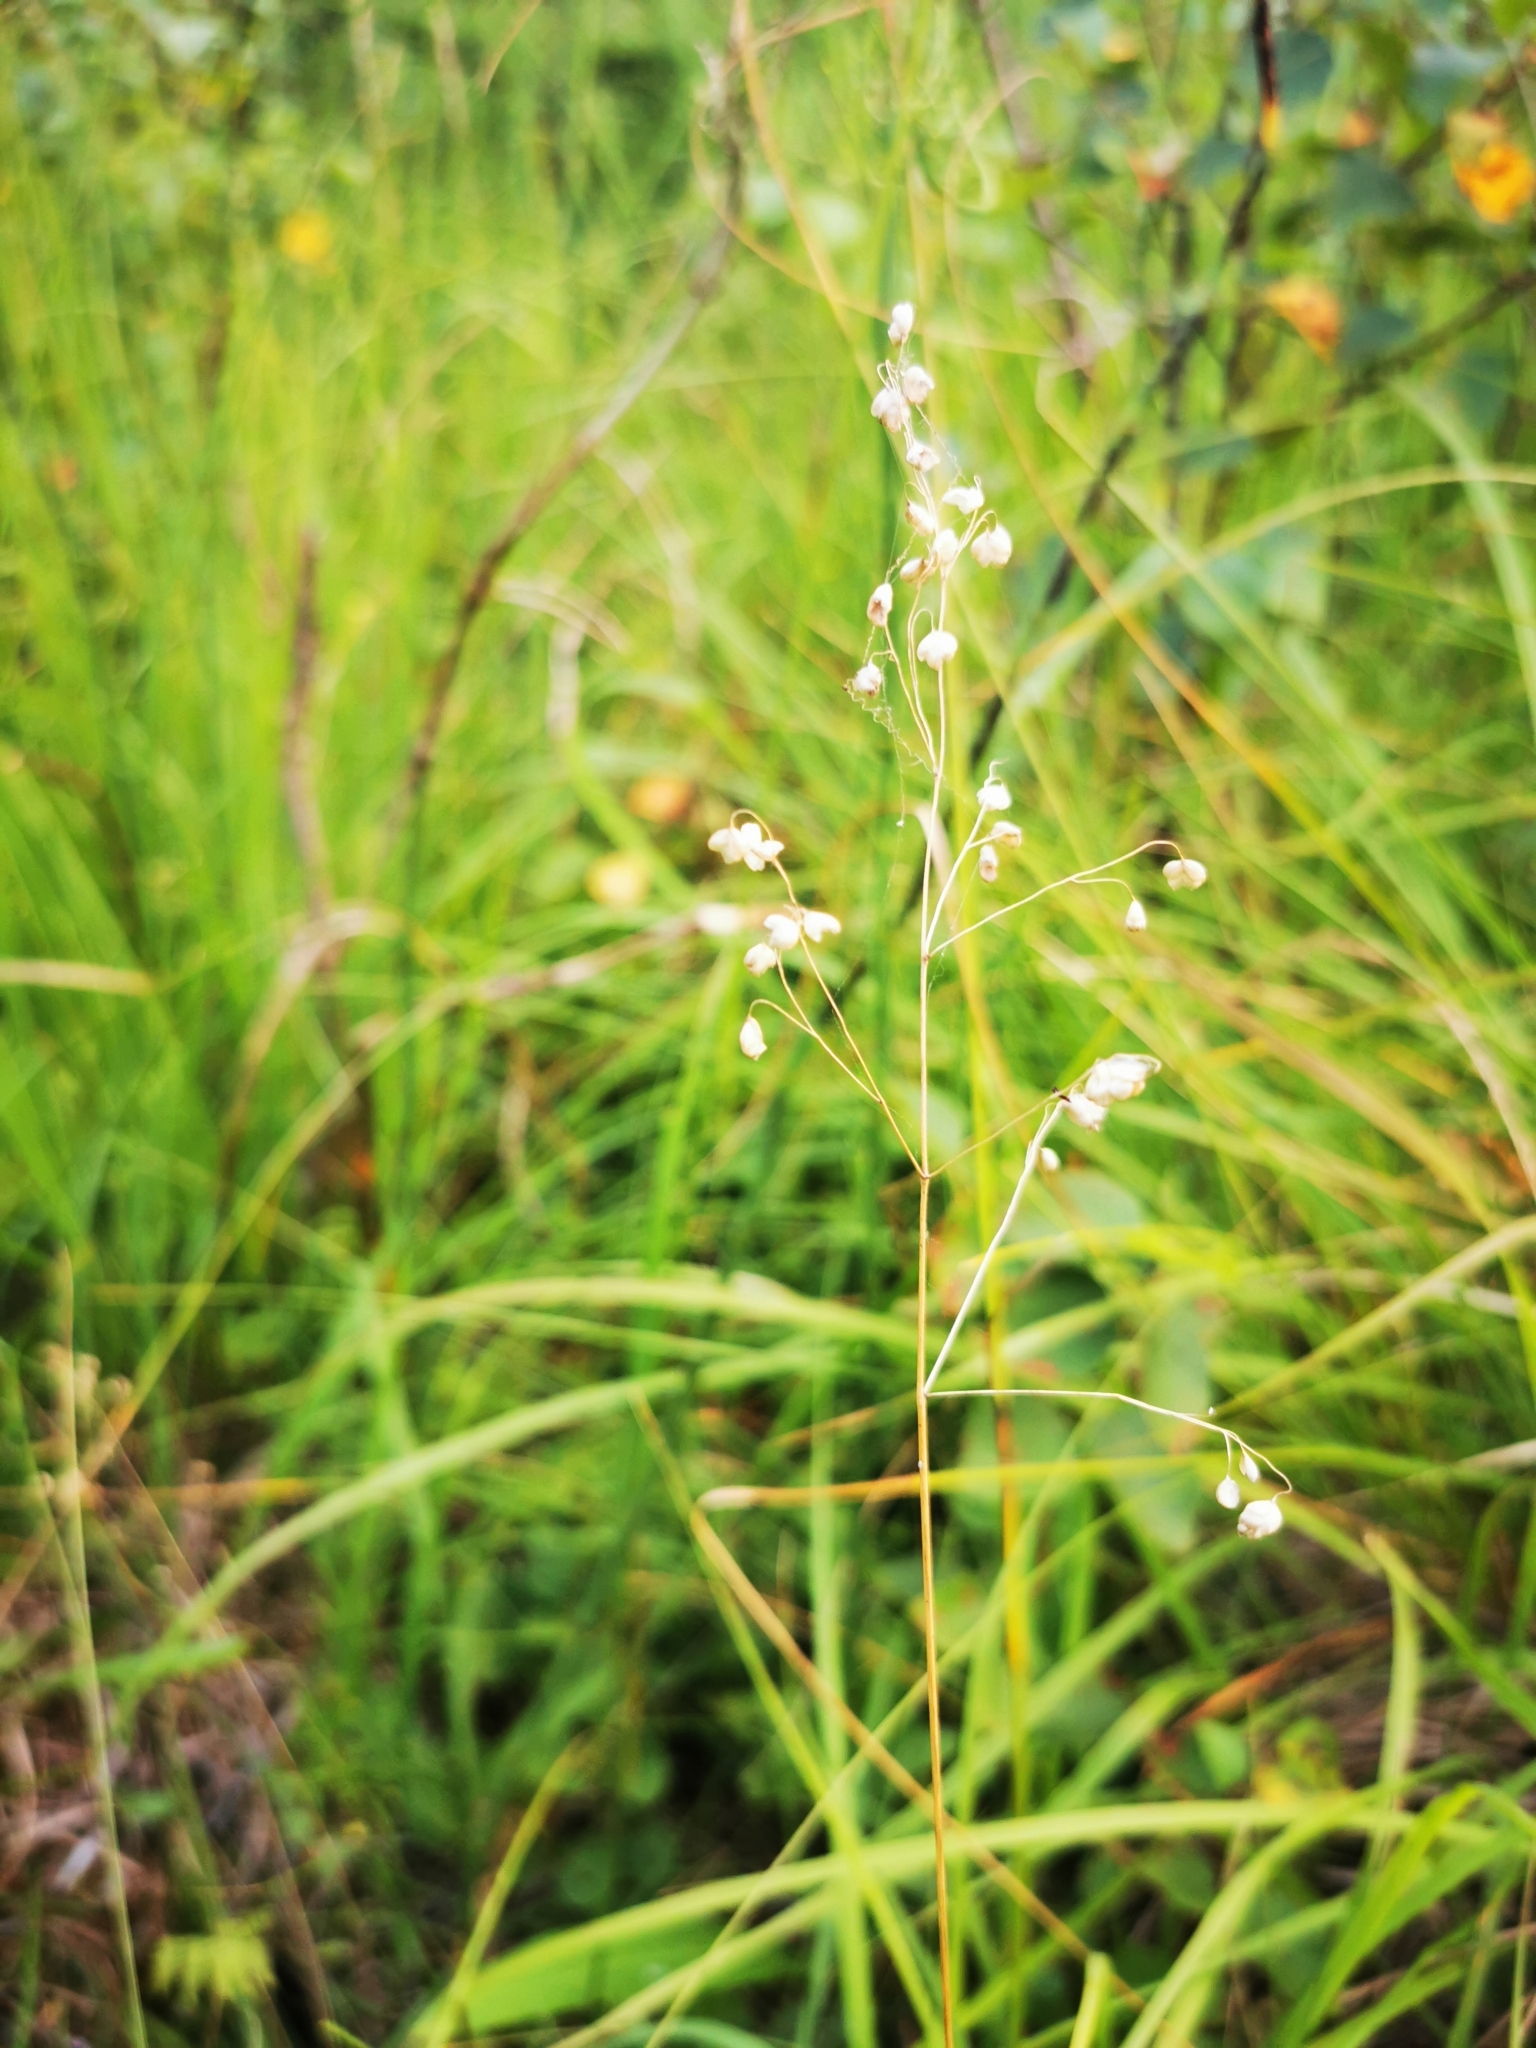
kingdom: Plantae
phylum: Tracheophyta
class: Liliopsida
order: Poales
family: Poaceae
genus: Briza
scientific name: Briza media
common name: Quaking grass
